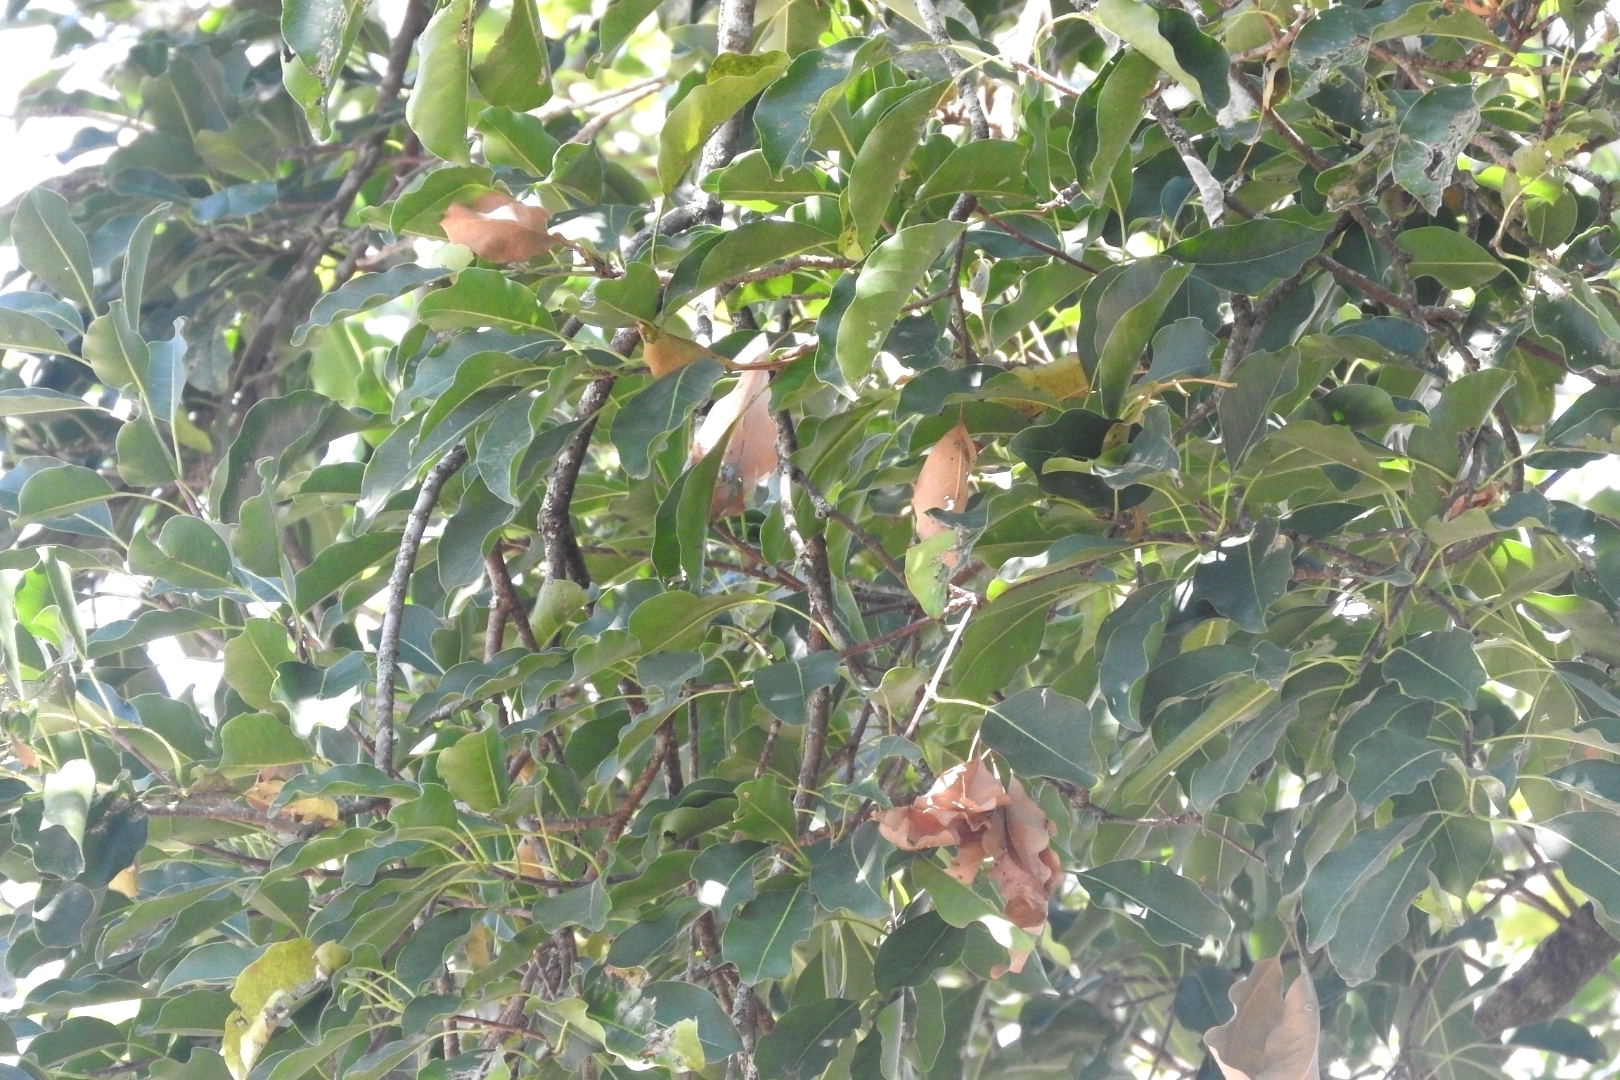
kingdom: Plantae
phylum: Tracheophyta
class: Magnoliopsida
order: Sapindales
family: Anacardiaceae
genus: Metopium
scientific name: Metopium brownei
